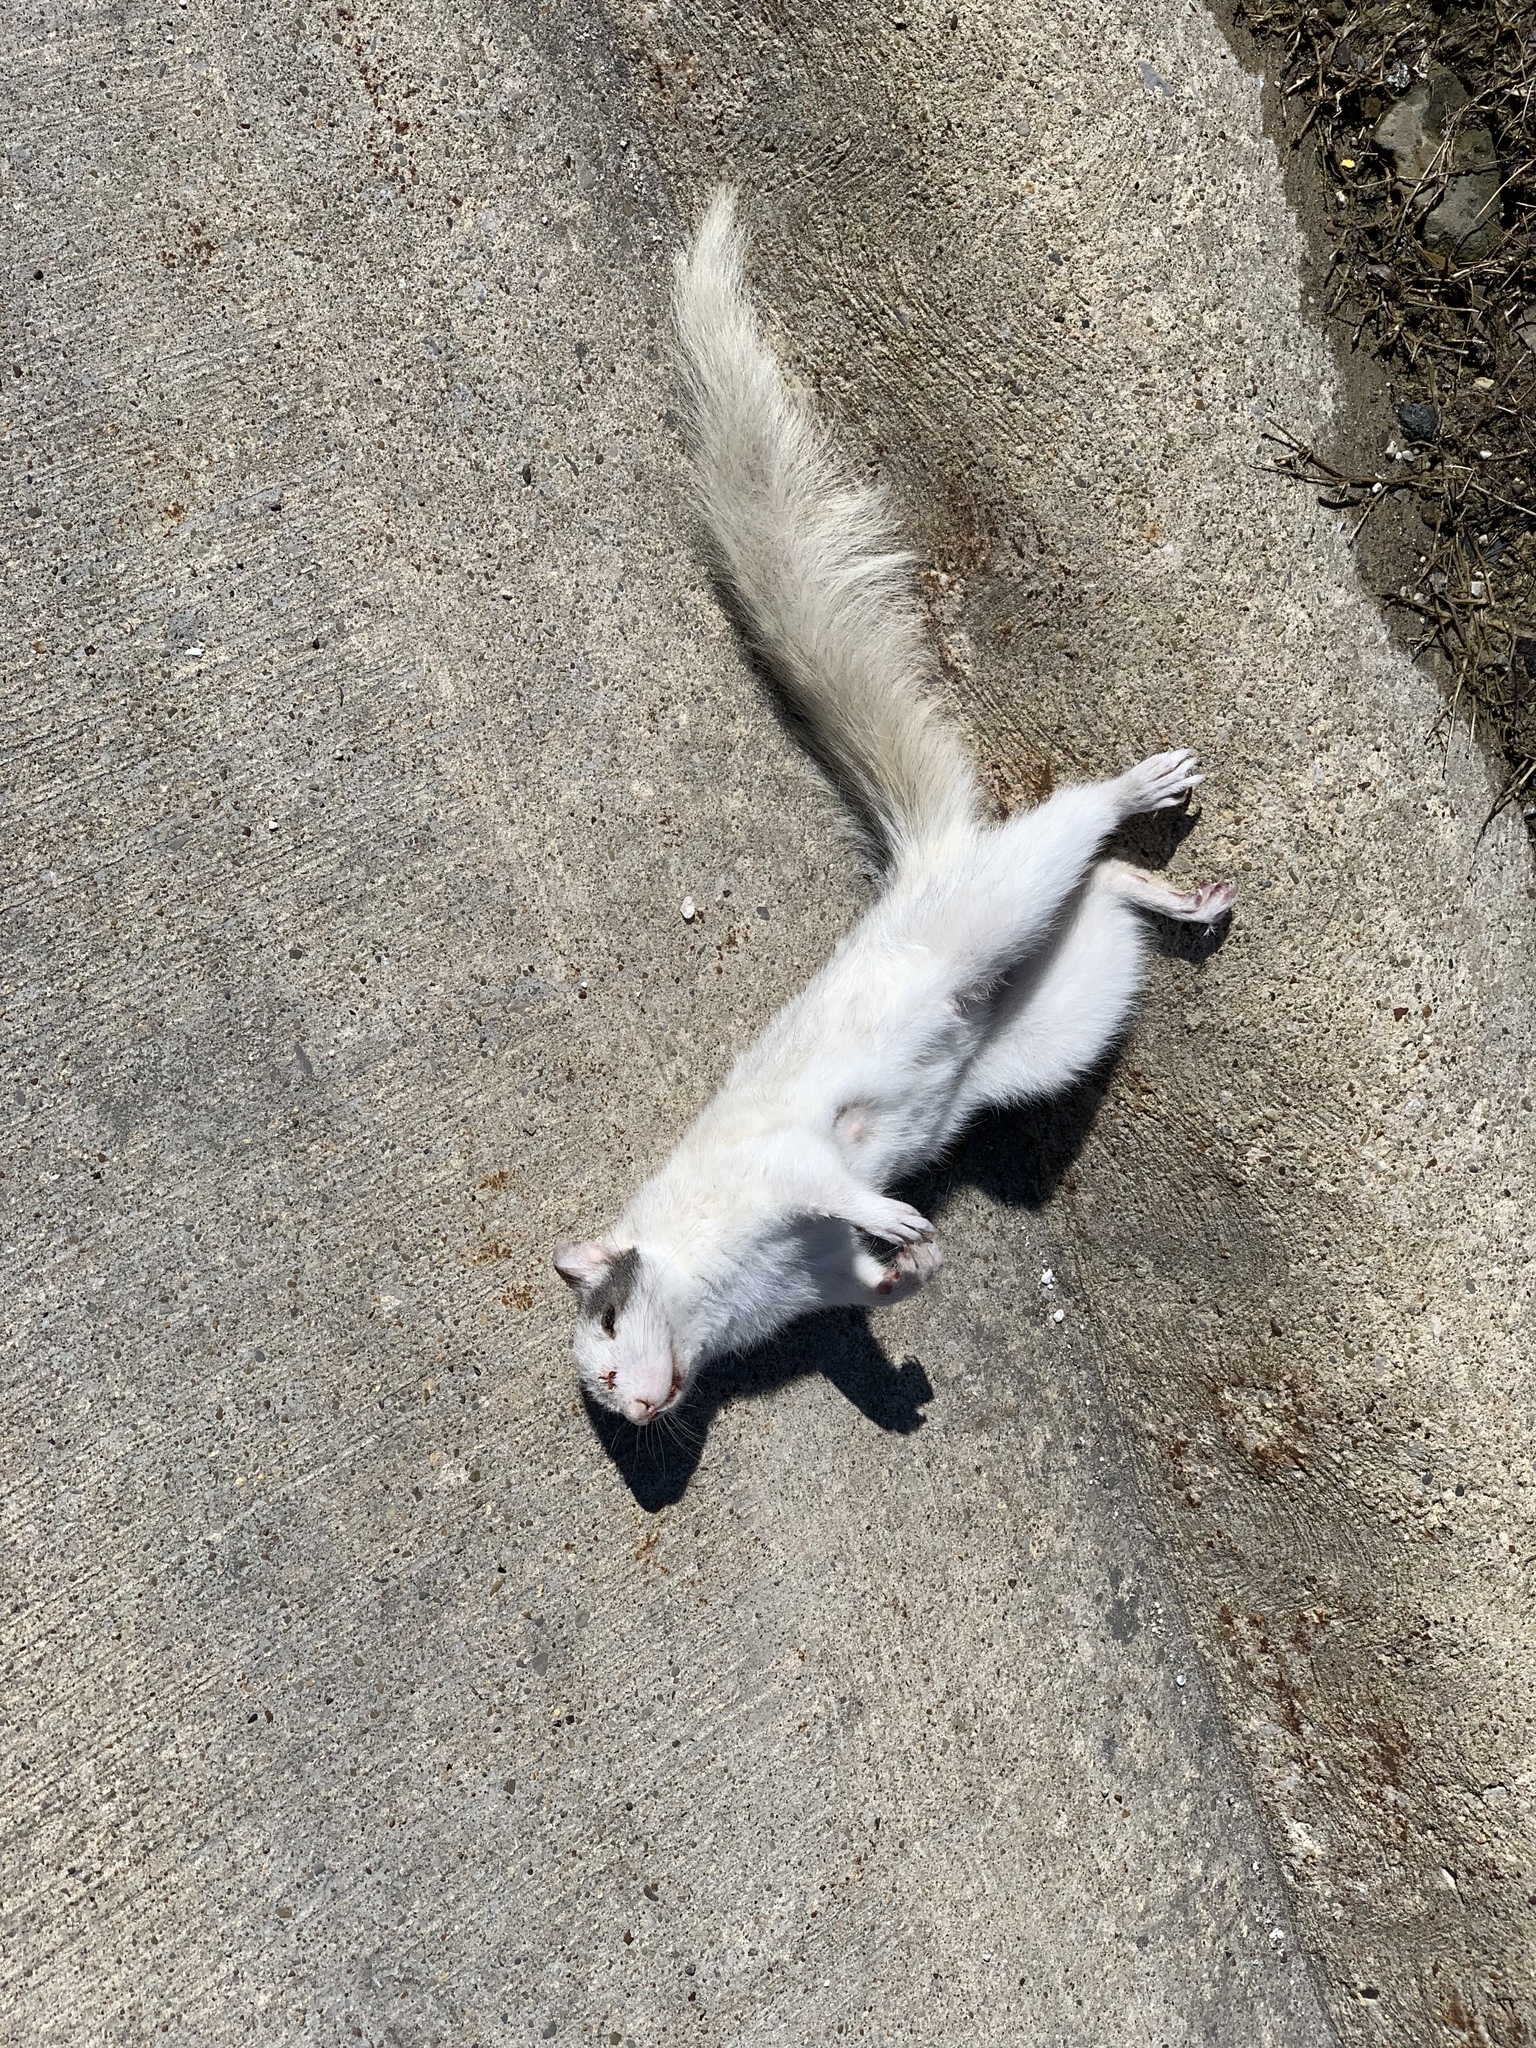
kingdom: Animalia
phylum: Chordata
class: Mammalia
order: Rodentia
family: Sciuridae
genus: Sciurus
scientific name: Sciurus carolinensis
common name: Eastern gray squirrel
